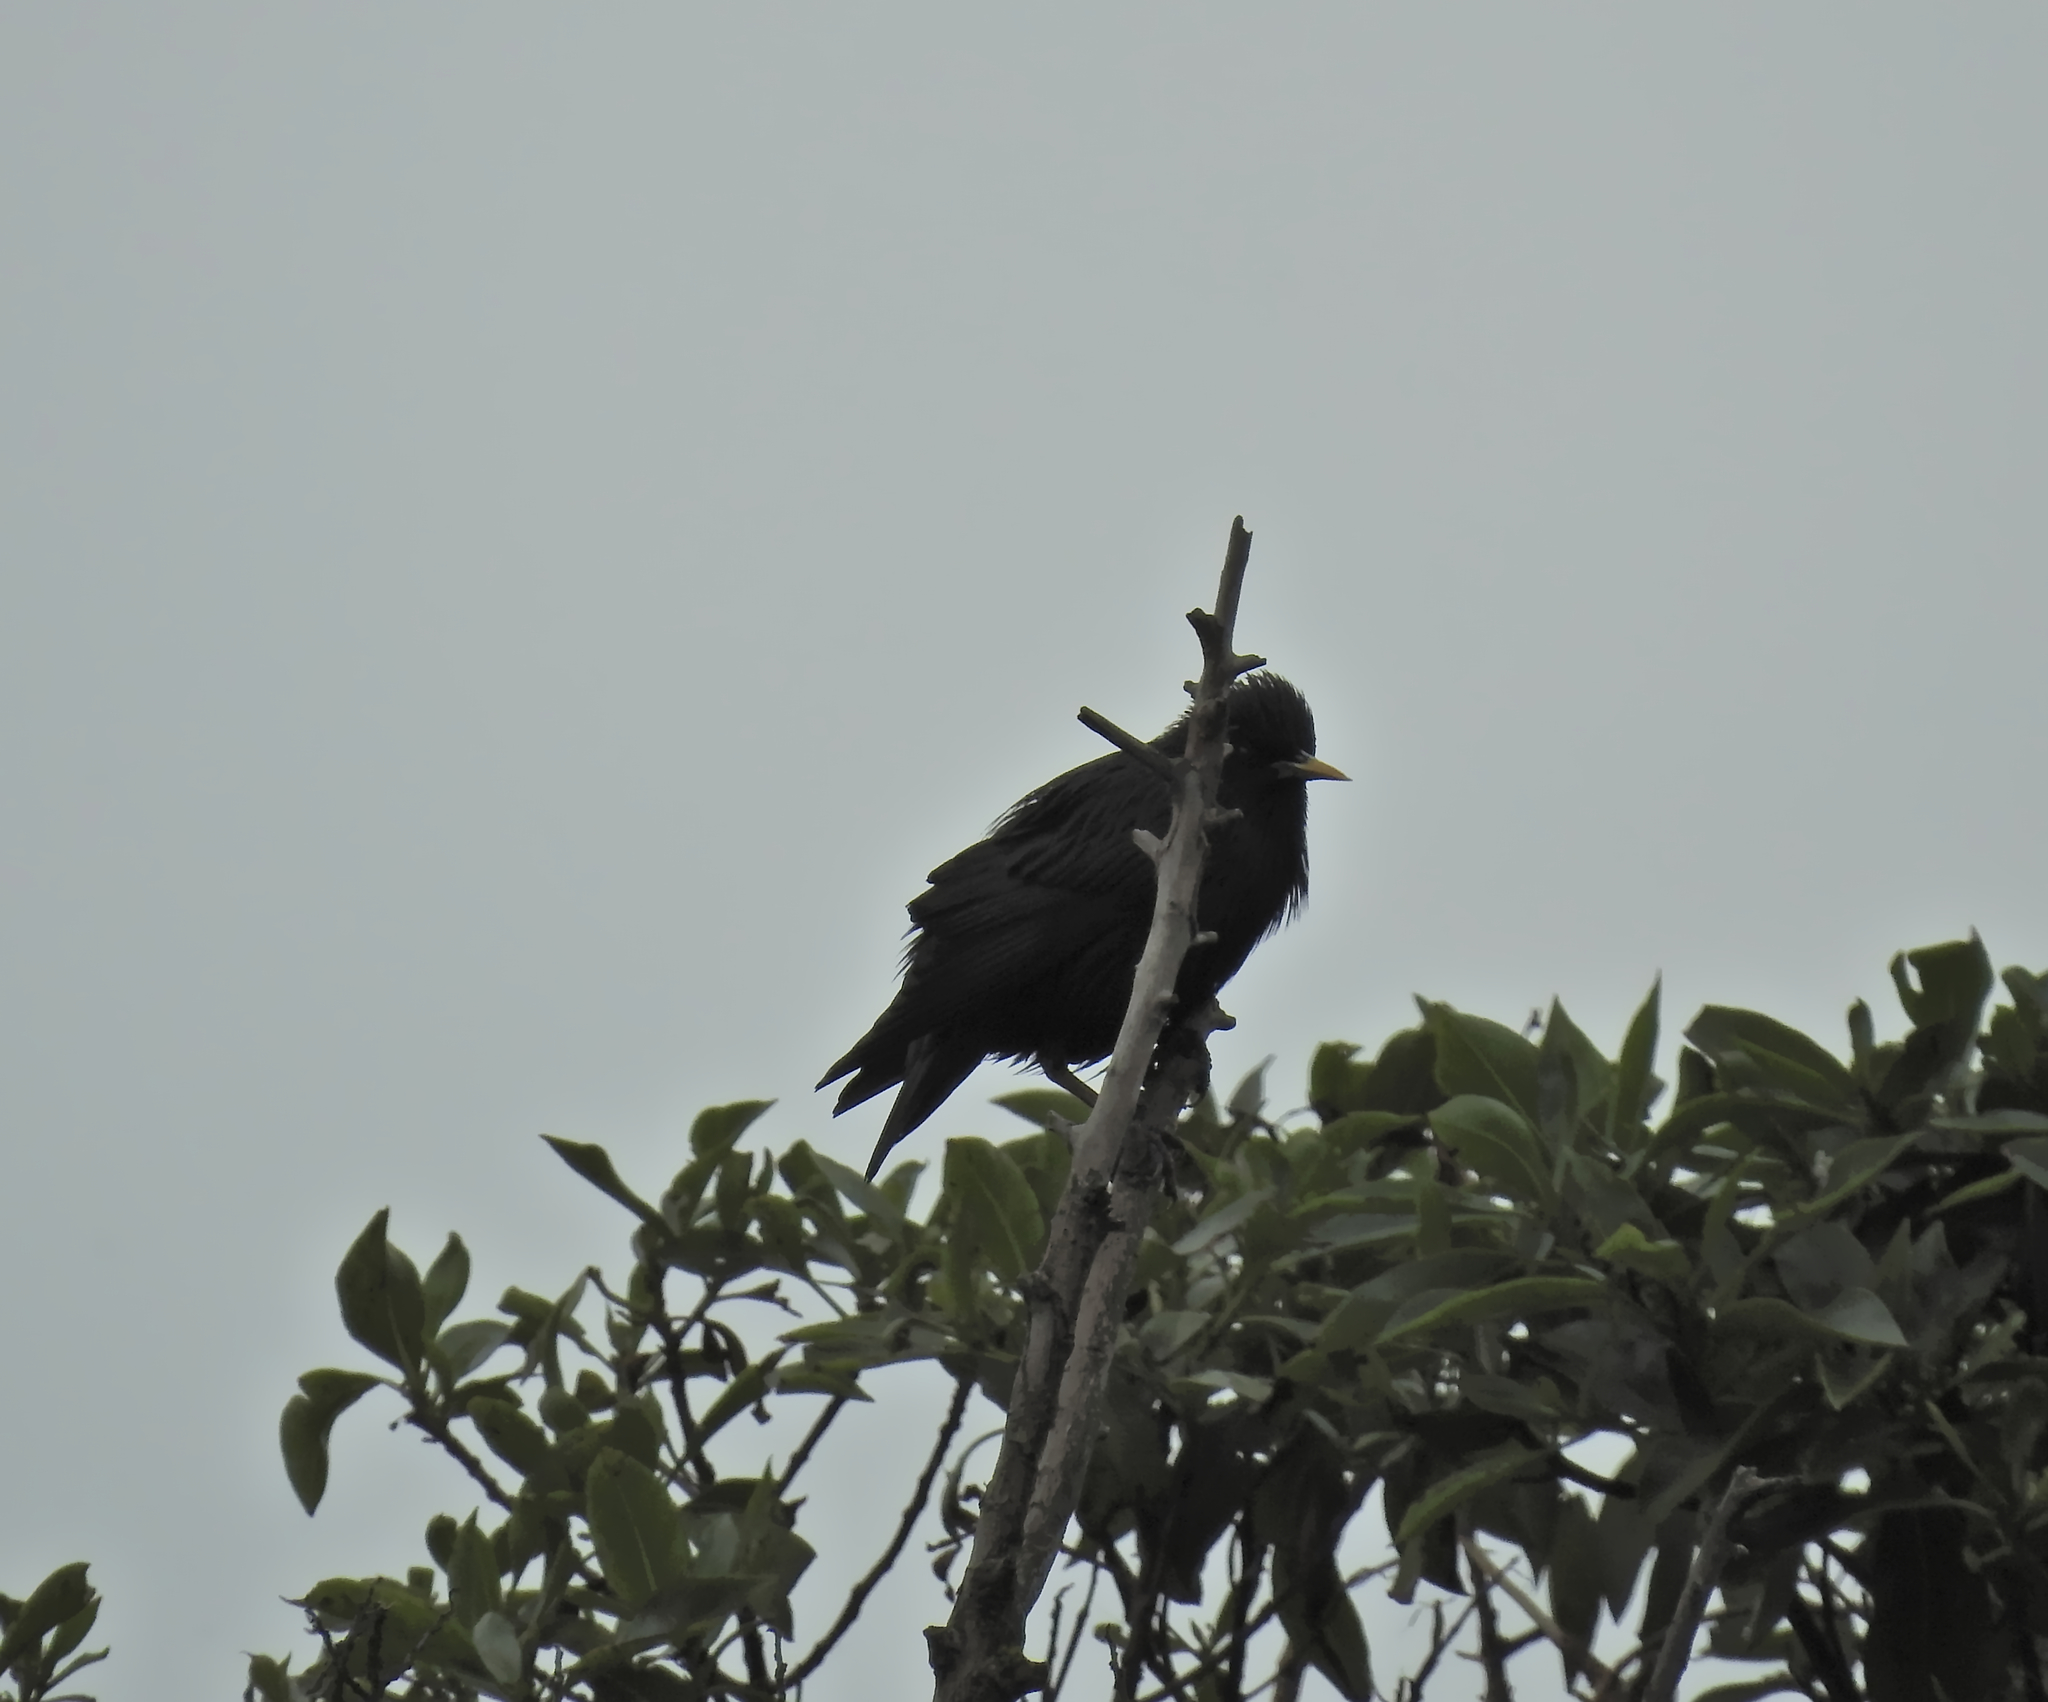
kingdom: Animalia
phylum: Chordata
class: Aves
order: Passeriformes
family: Sturnidae
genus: Sturnus
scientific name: Sturnus unicolor
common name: Spotless starling
